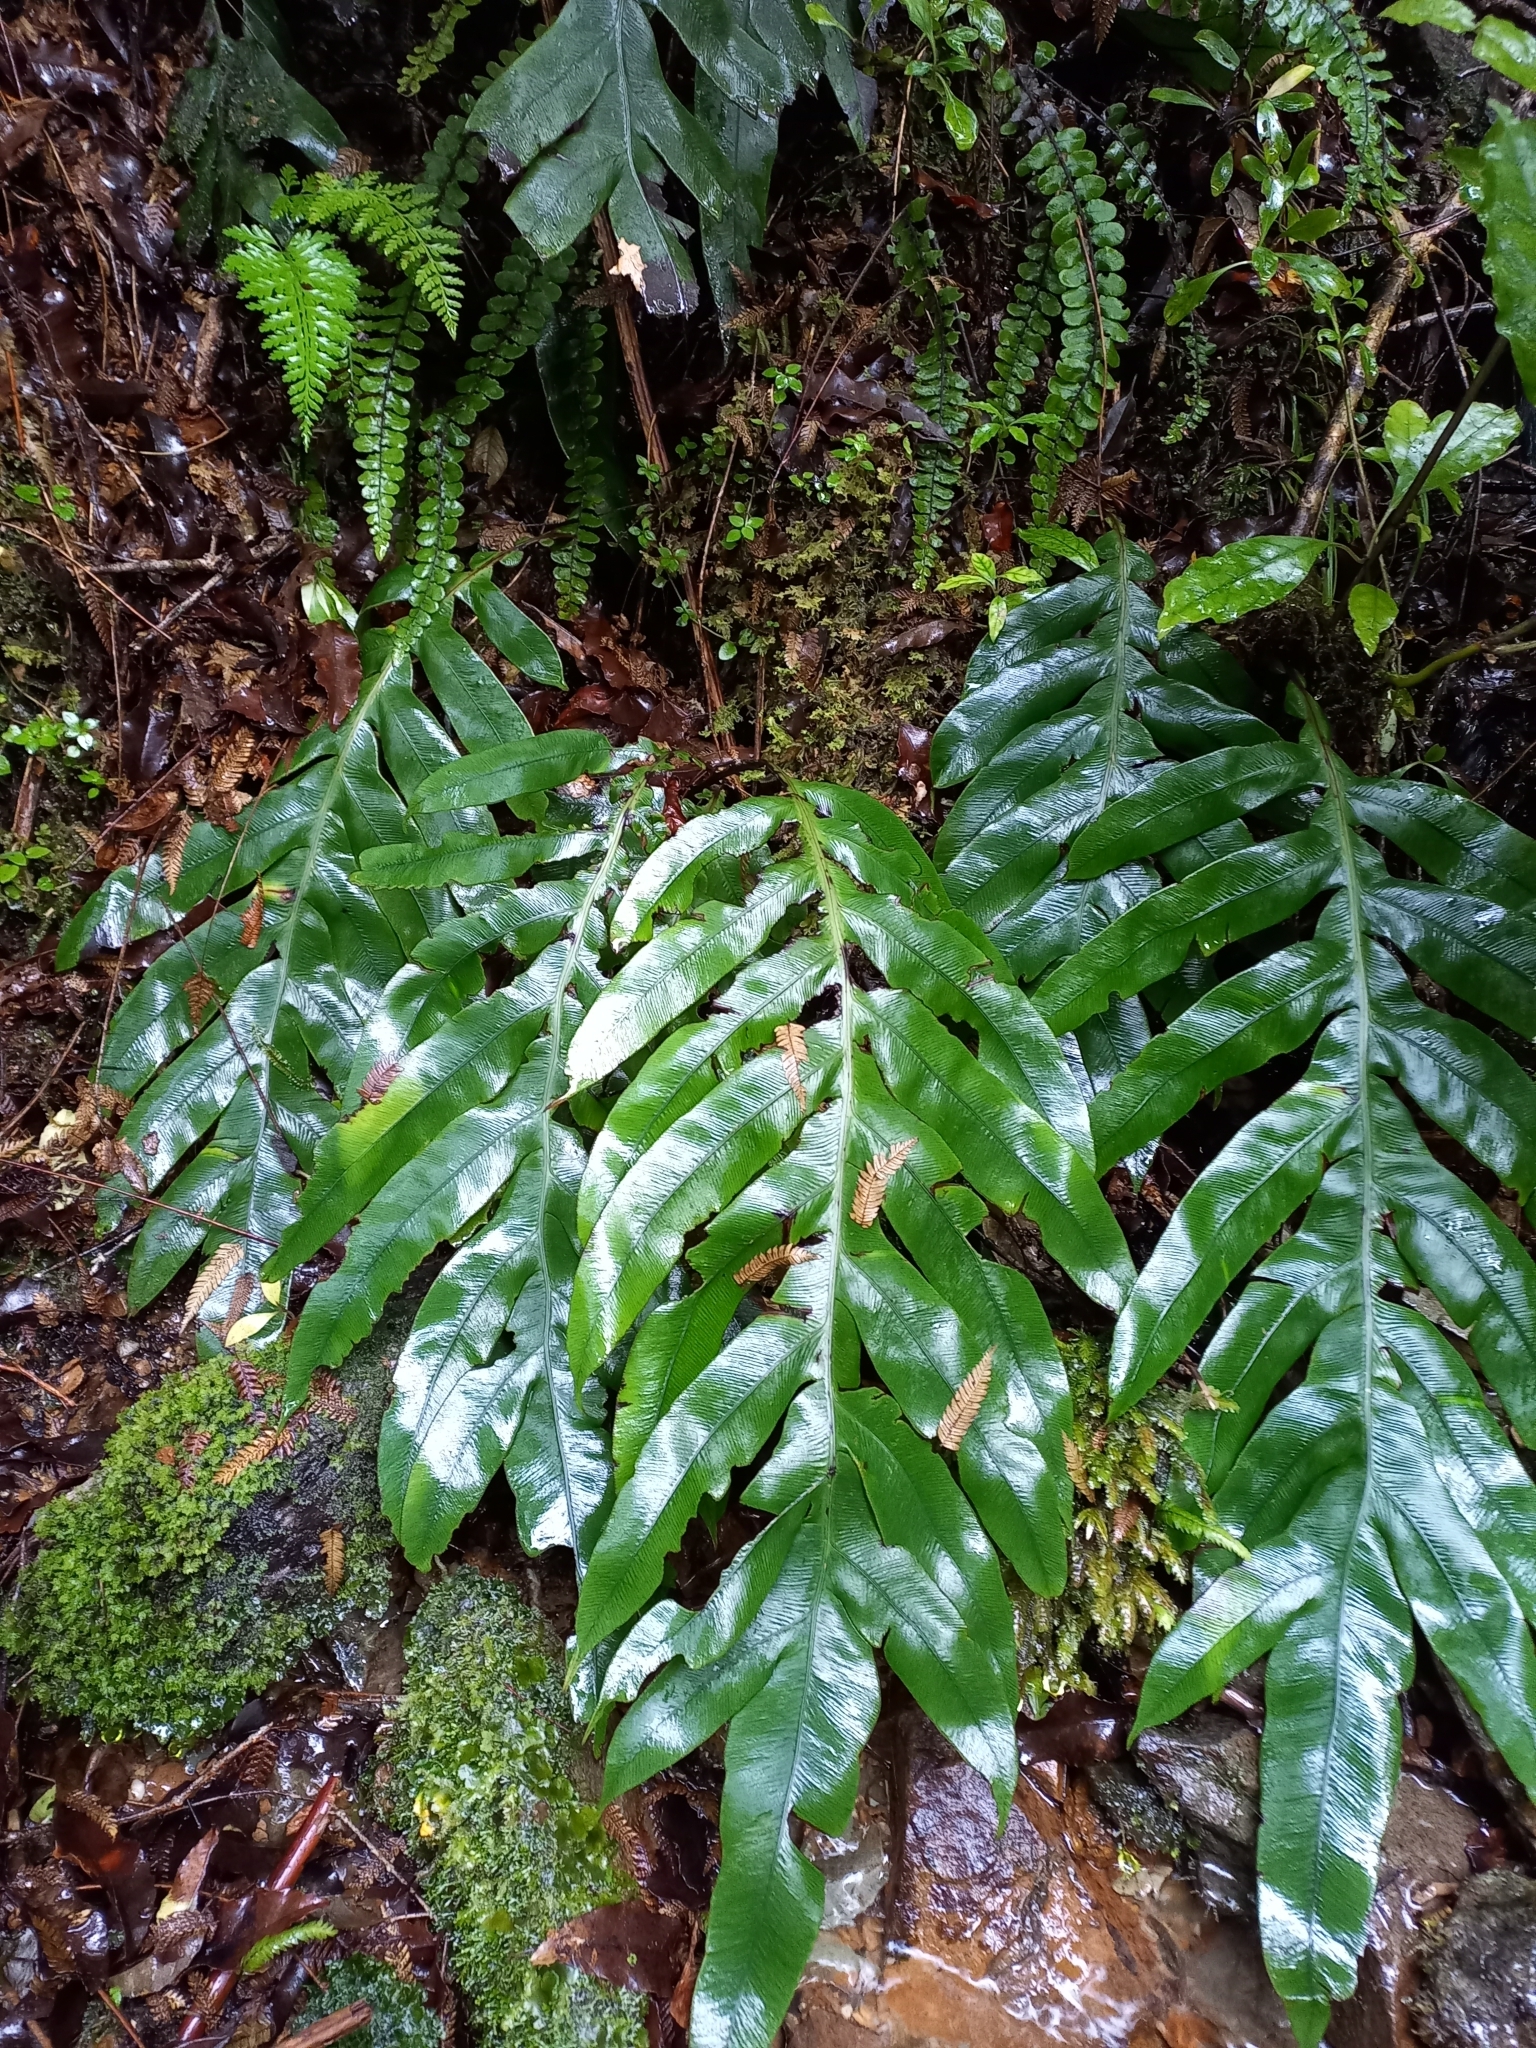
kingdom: Plantae
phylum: Tracheophyta
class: Polypodiopsida
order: Polypodiales
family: Blechnaceae
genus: Austroblechnum
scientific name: Austroblechnum colensoi
